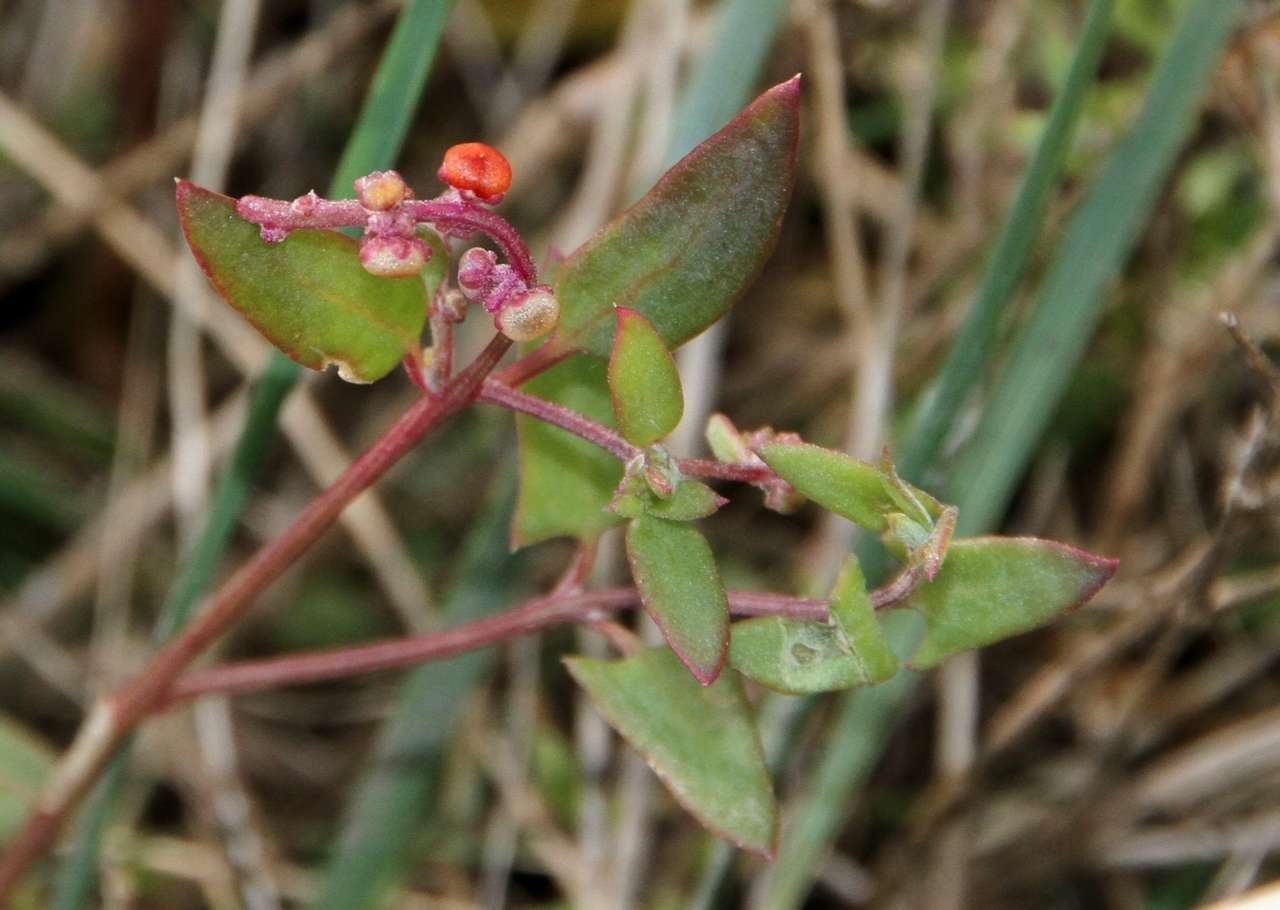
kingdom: Plantae
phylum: Tracheophyta
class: Magnoliopsida
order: Caryophyllales
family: Amaranthaceae
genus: Chenopodium
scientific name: Chenopodium nutans
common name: Climbing-saltbush
